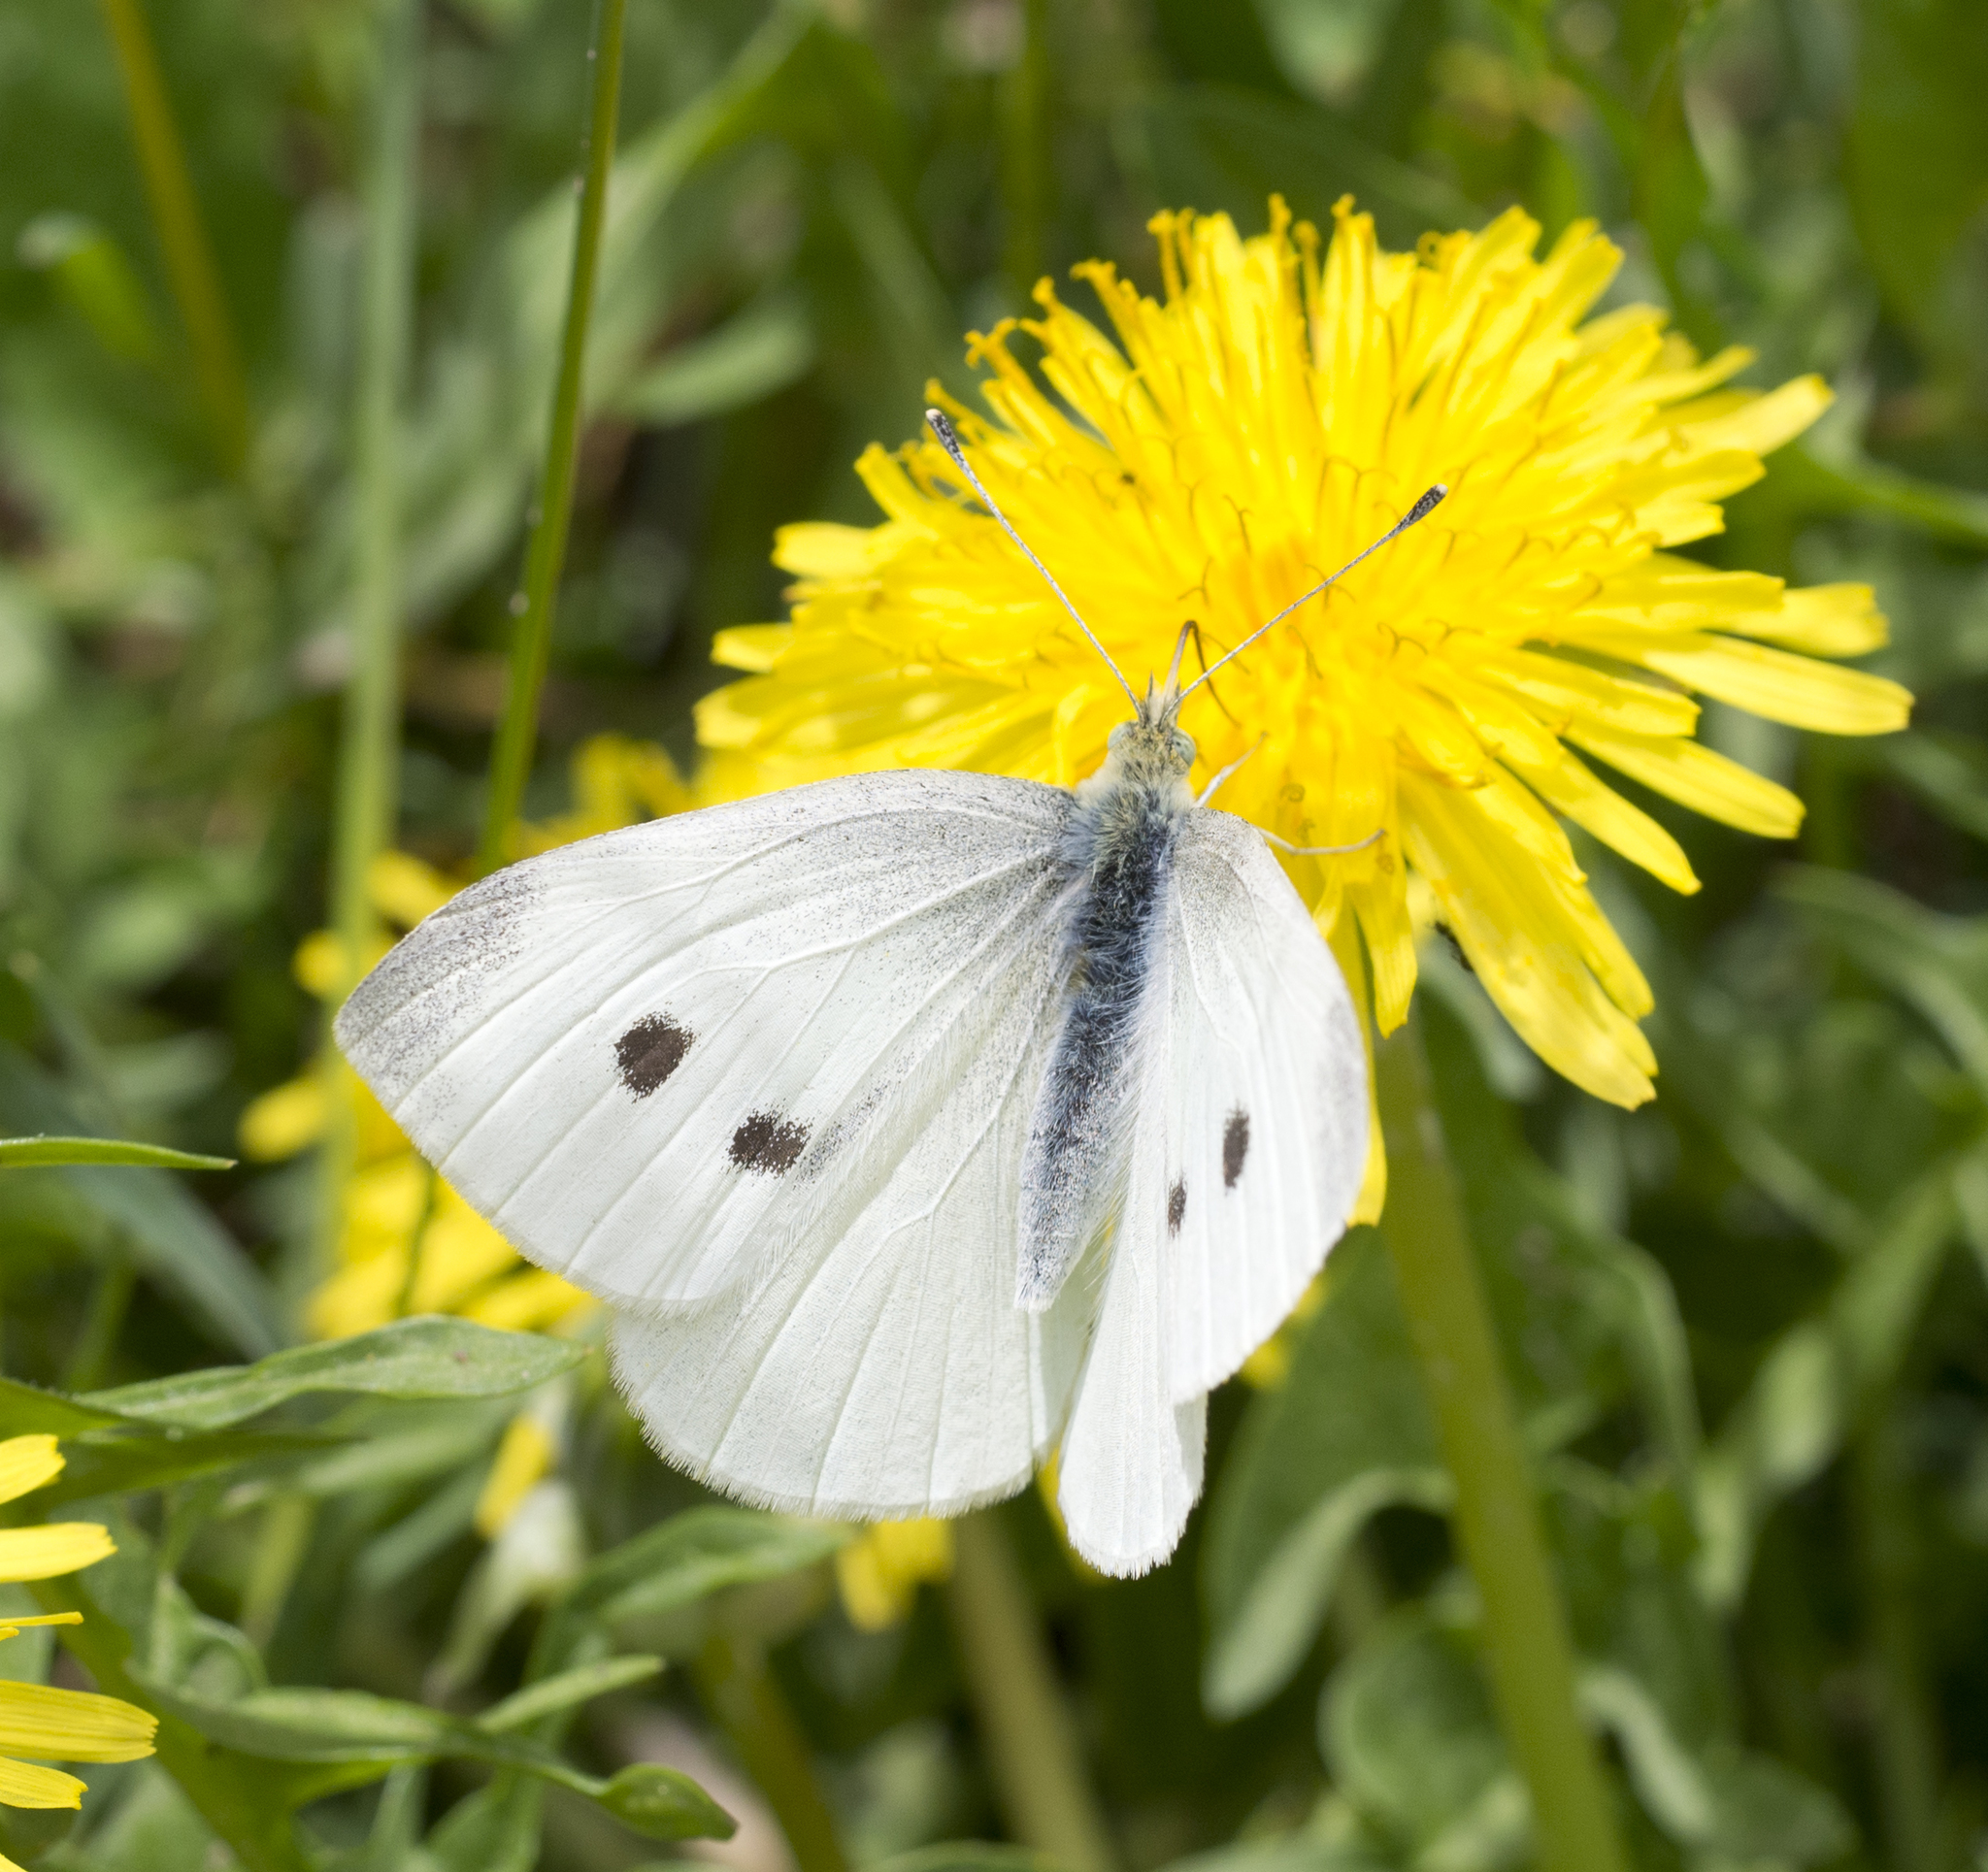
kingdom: Animalia
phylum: Arthropoda
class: Insecta
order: Lepidoptera
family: Pieridae
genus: Pieris
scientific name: Pieris rapae
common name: Small white
